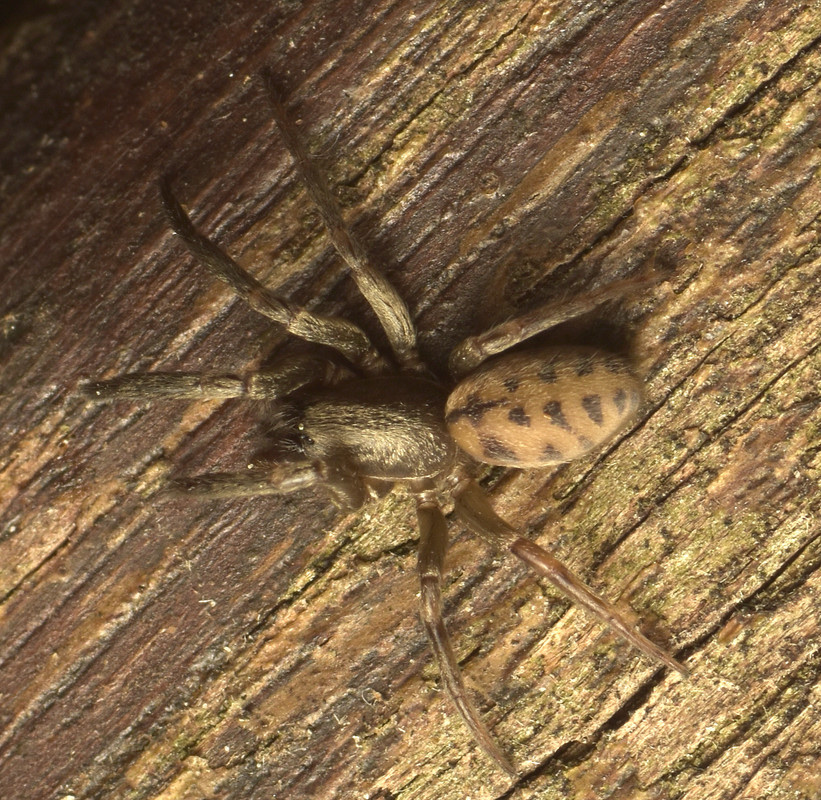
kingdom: Animalia
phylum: Arthropoda
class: Arachnida
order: Araneae
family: Segestriidae
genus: Gippsicola
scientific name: Gippsicola robusta
